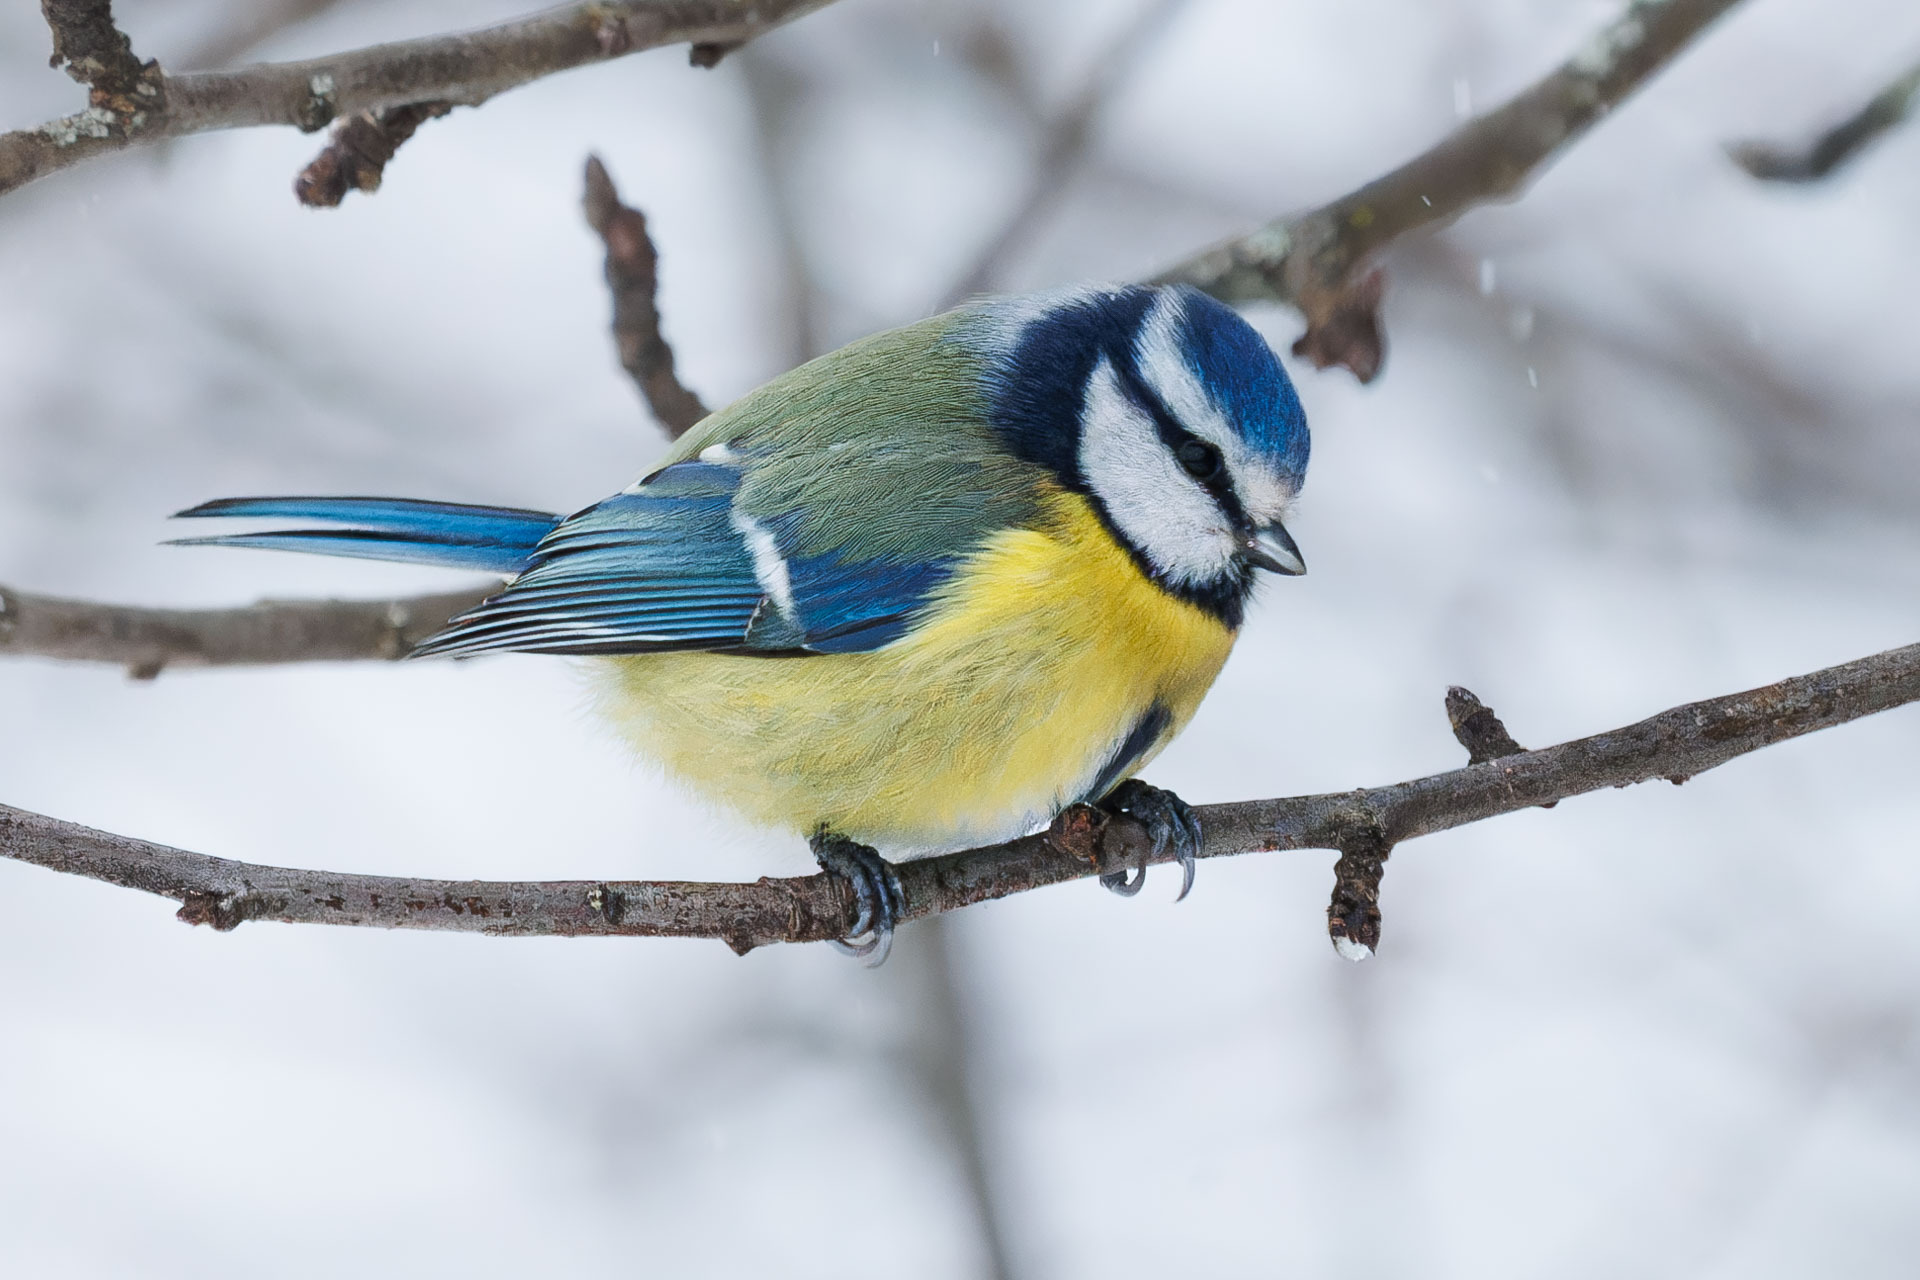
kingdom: Animalia
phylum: Chordata
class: Aves
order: Passeriformes
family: Paridae
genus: Cyanistes
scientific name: Cyanistes caeruleus
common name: Eurasian blue tit
